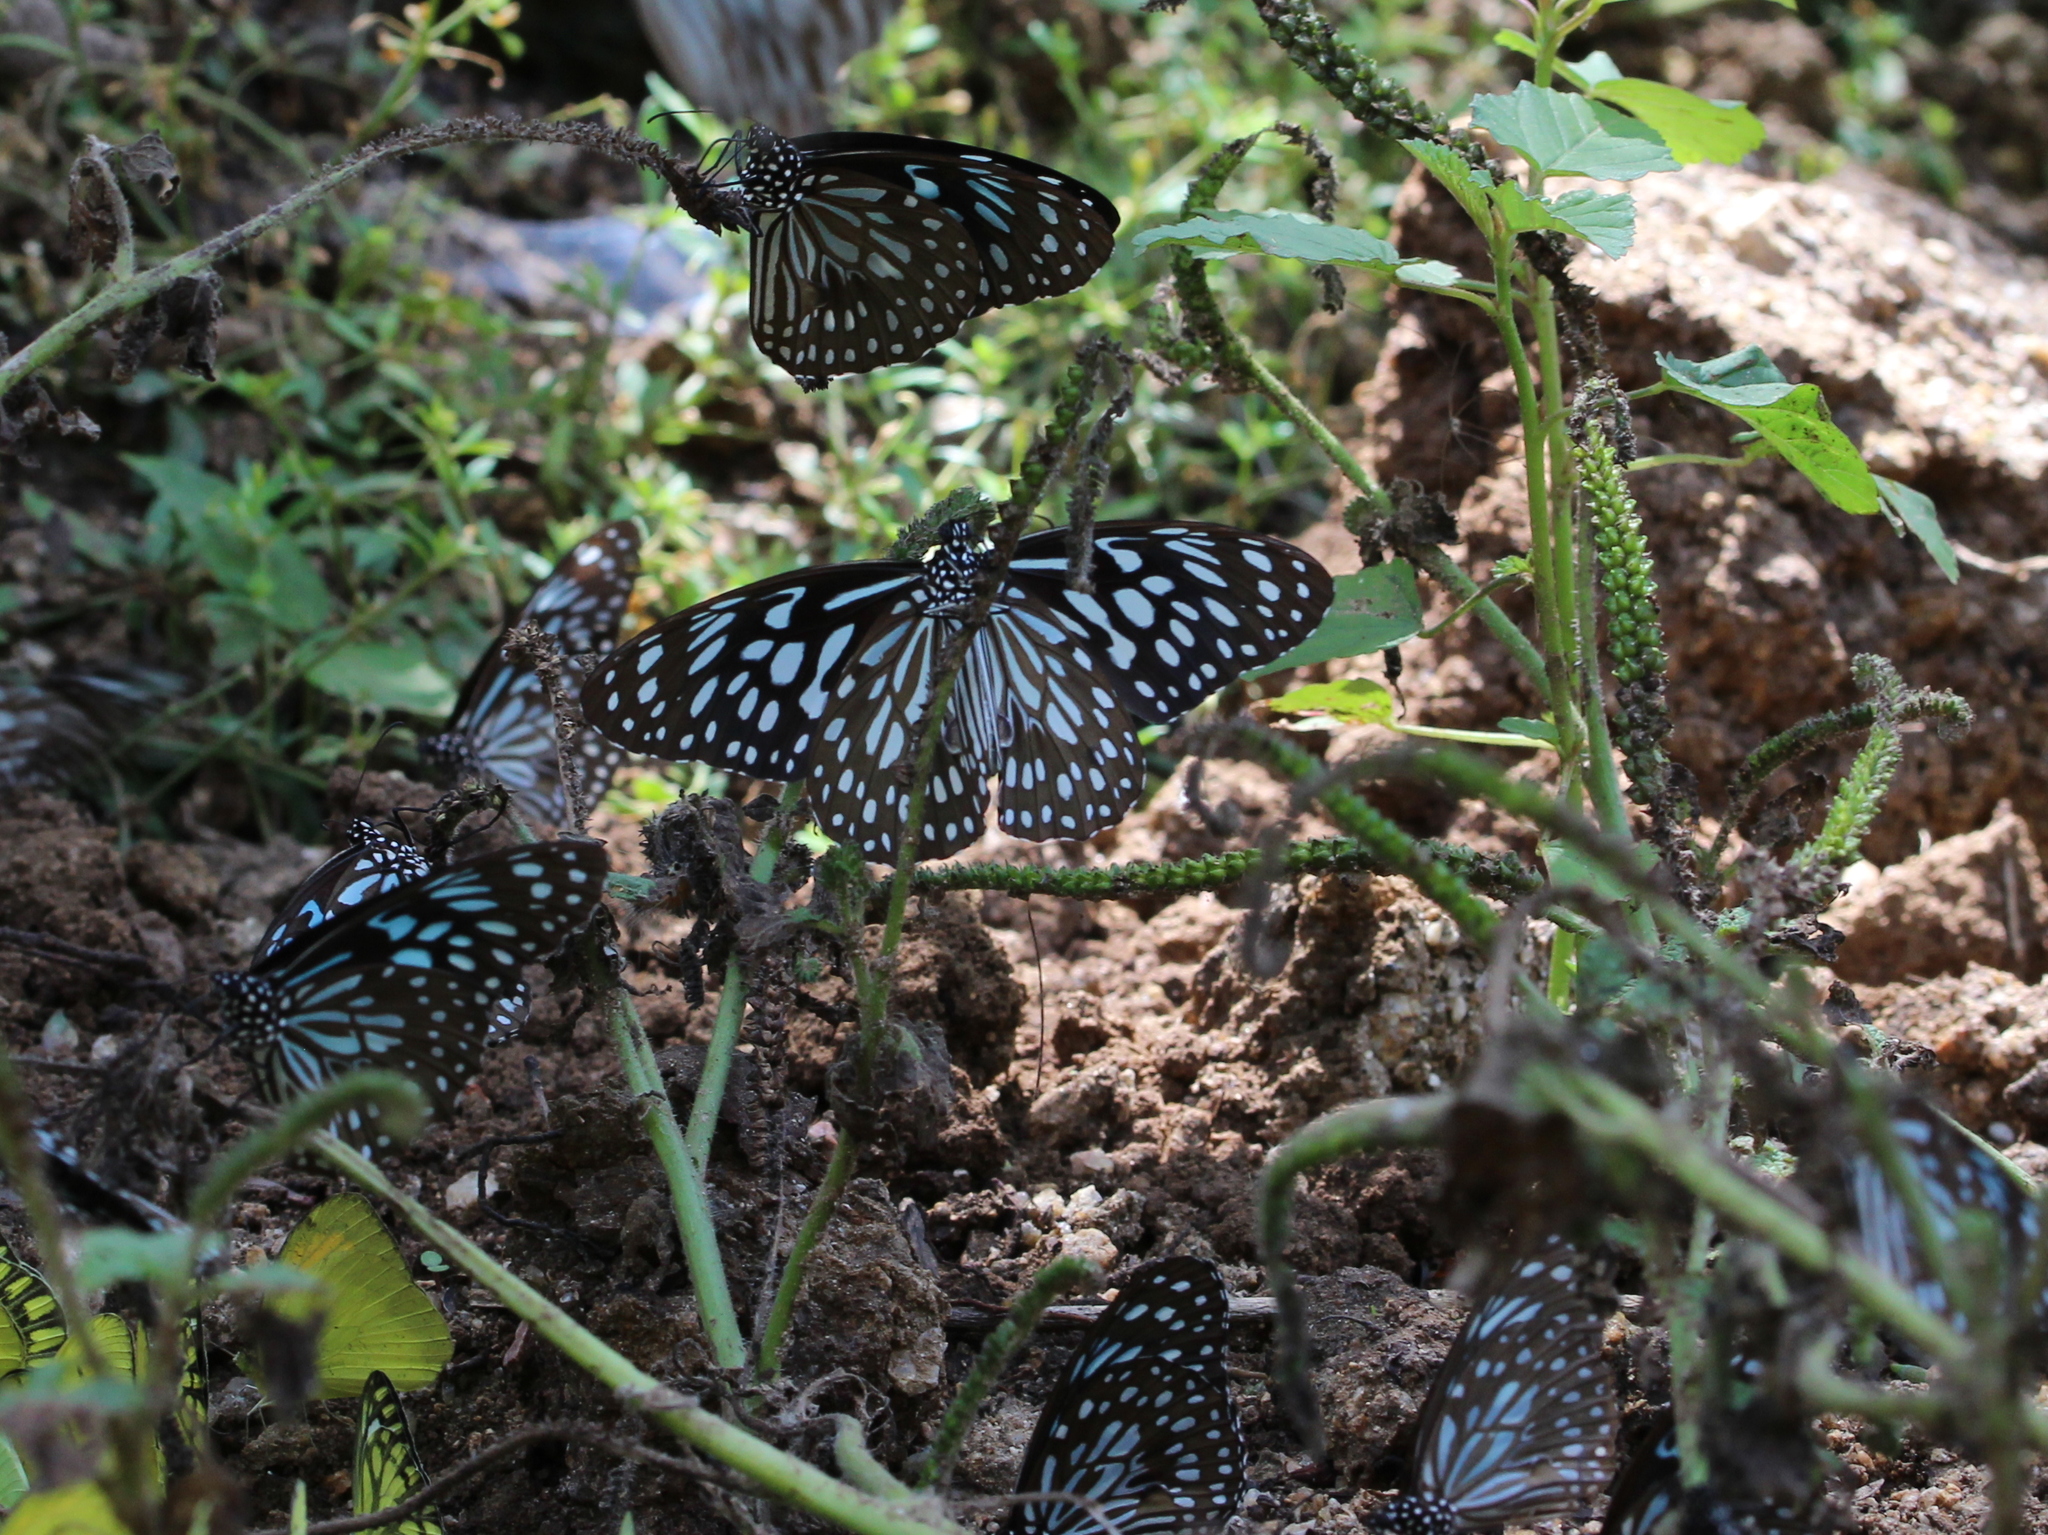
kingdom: Animalia
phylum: Arthropoda
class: Insecta
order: Lepidoptera
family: Nymphalidae
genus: Tirumala
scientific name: Tirumala septentrionis
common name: Dark blue tiger butterfly
